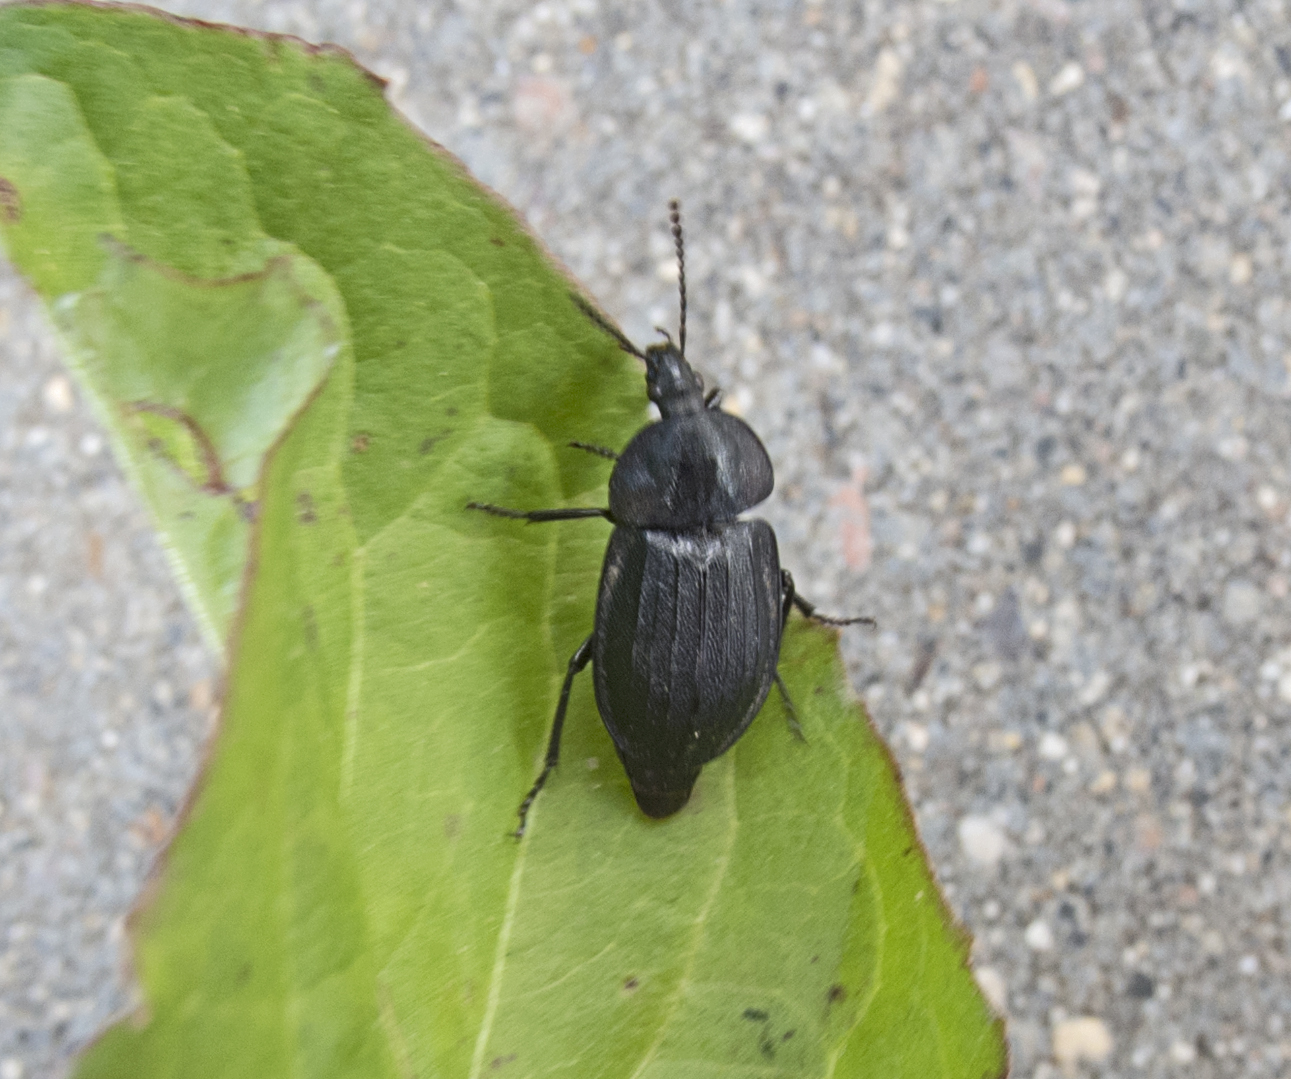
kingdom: Animalia
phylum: Arthropoda
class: Insecta
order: Coleoptera
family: Staphylinidae
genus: Silpha
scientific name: Silpha atrata
